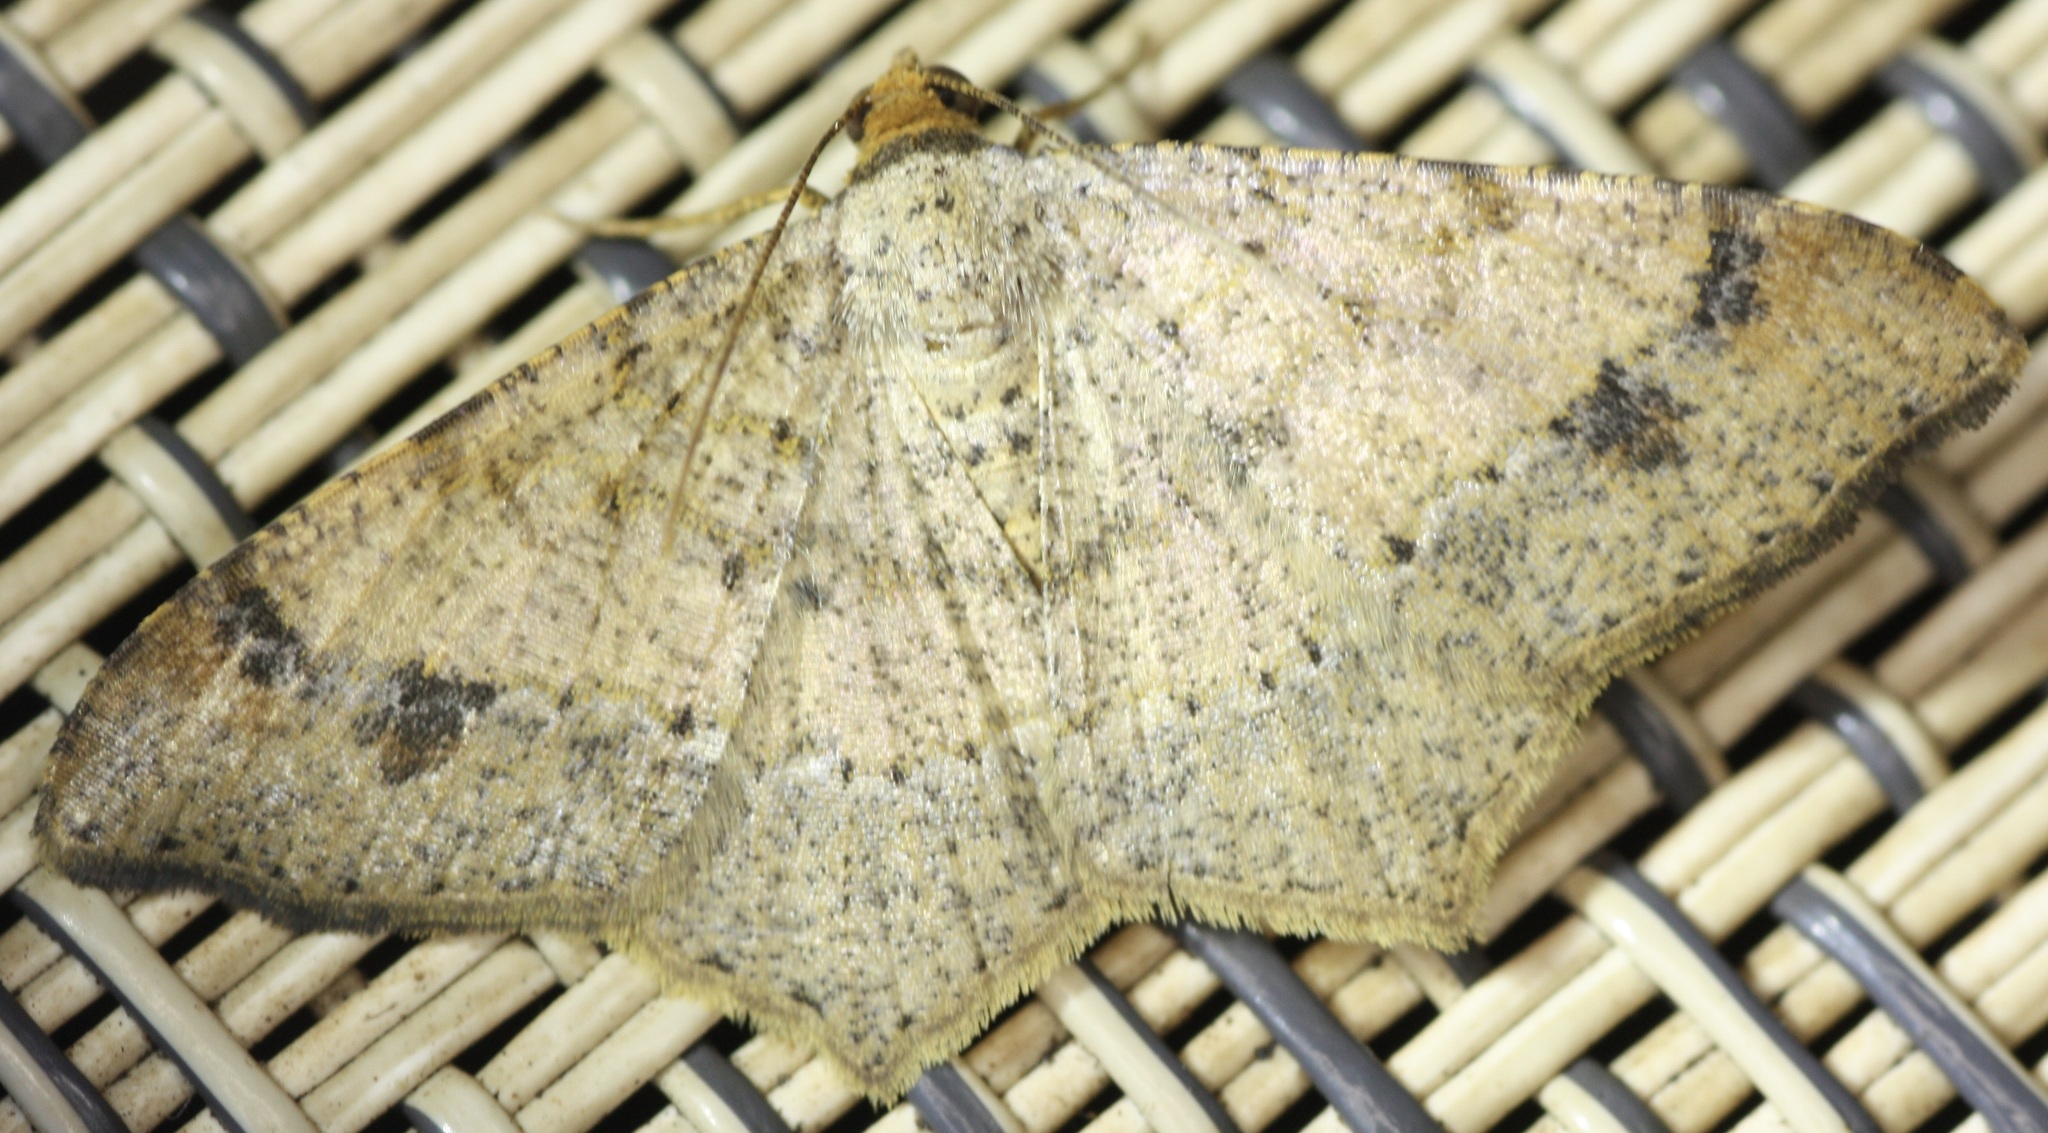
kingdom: Animalia
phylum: Arthropoda
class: Insecta
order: Lepidoptera
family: Geometridae
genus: Macaria
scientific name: Macaria abydata
